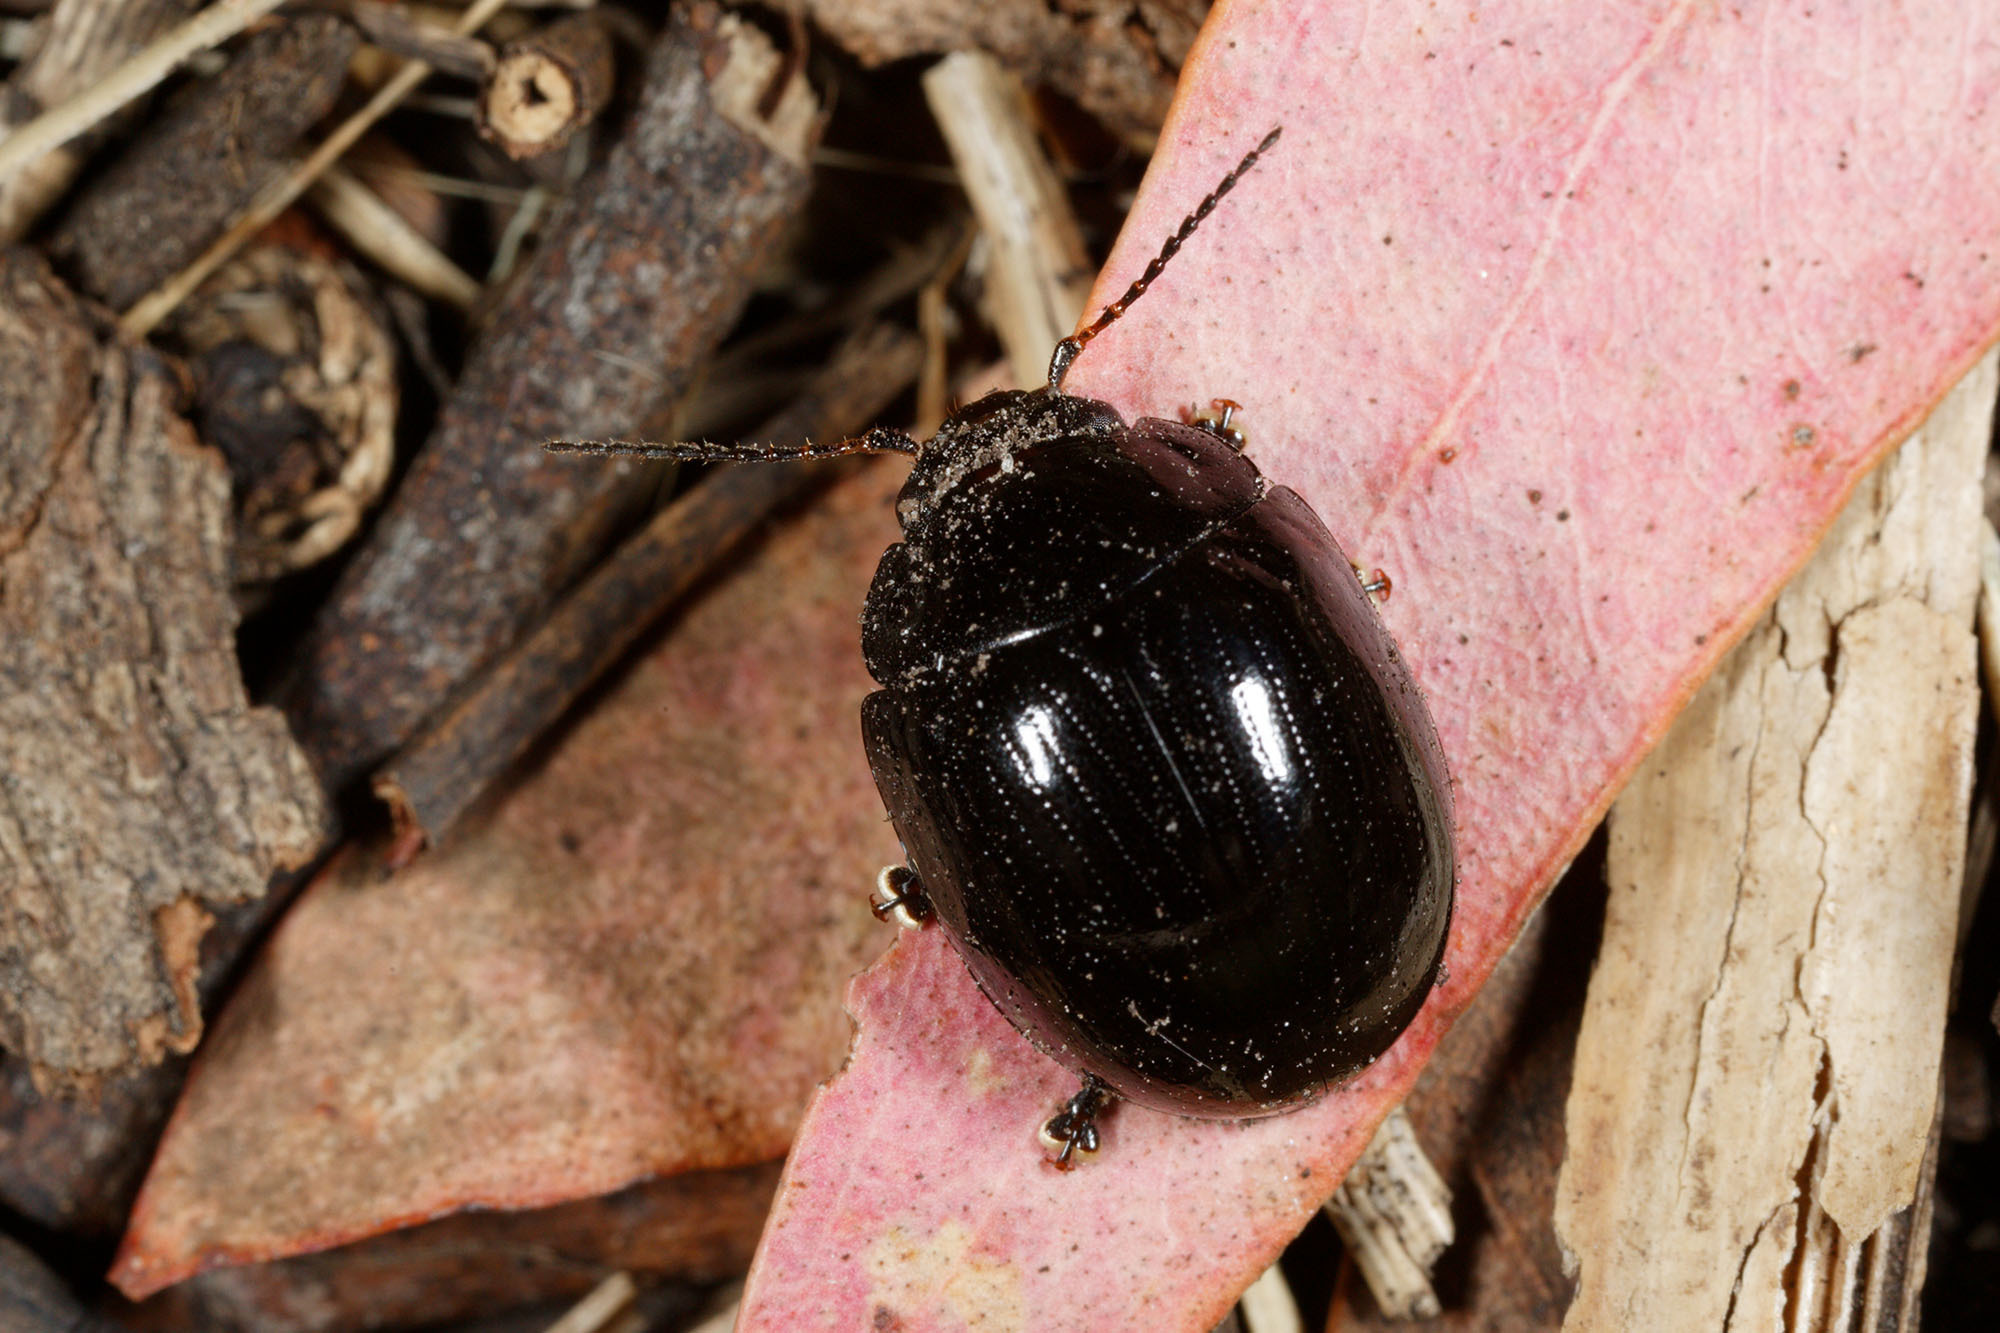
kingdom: Animalia
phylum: Arthropoda
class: Insecta
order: Coleoptera
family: Chrysomelidae
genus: Paropsisterna
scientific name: Paropsisterna
